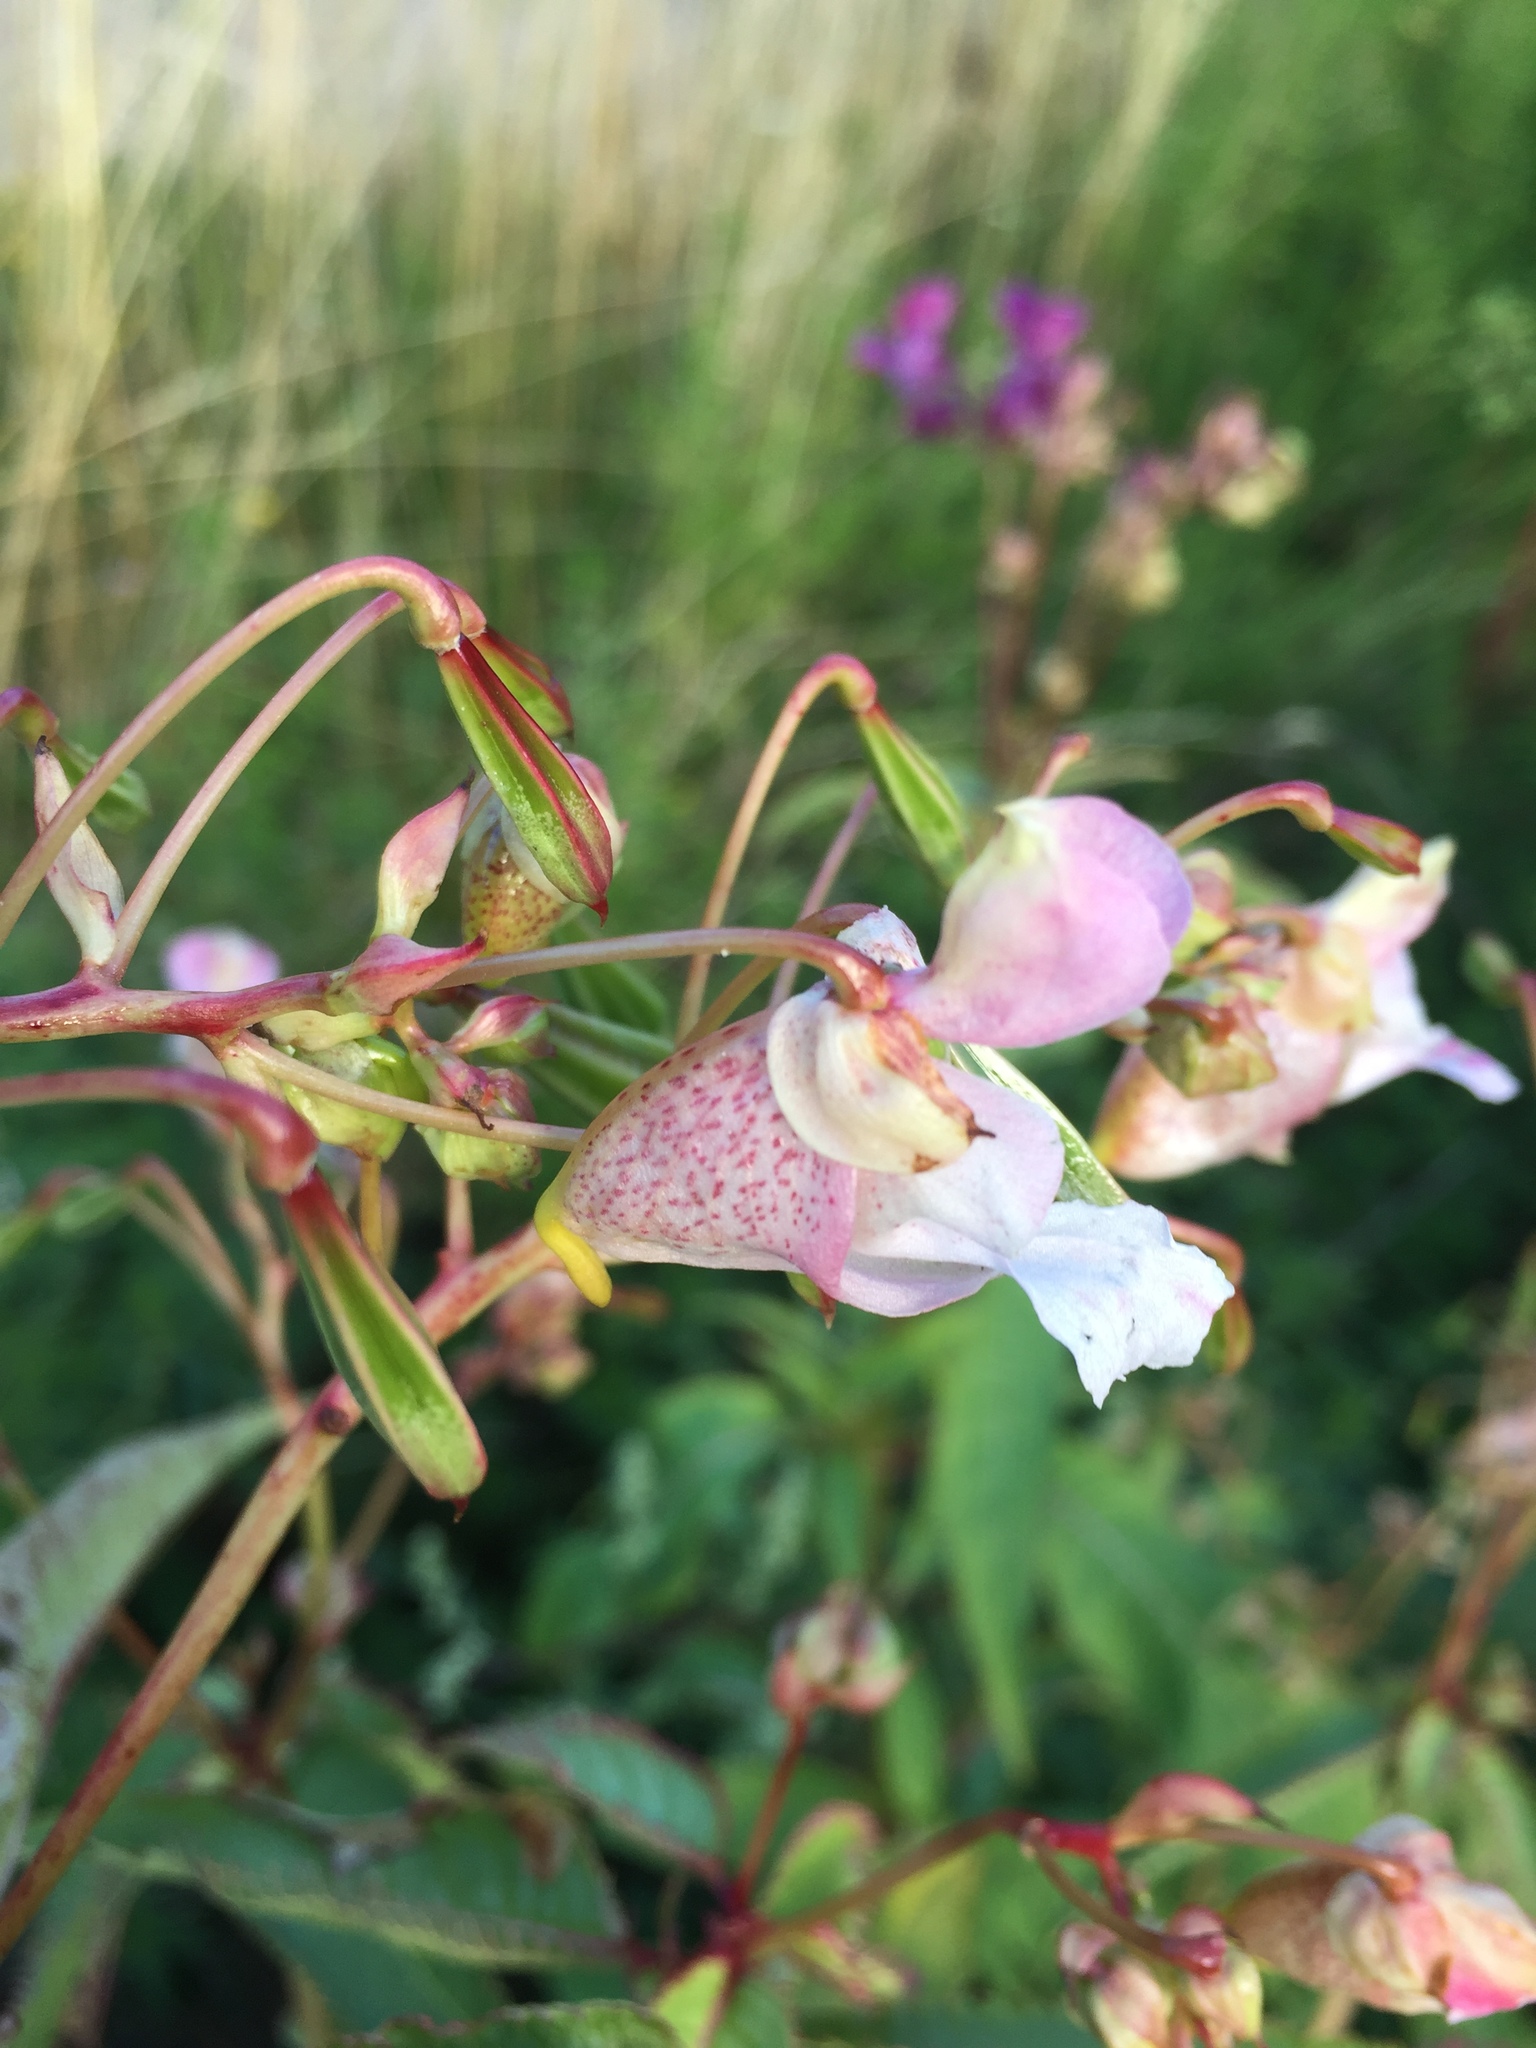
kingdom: Plantae
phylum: Tracheophyta
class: Magnoliopsida
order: Ericales
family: Balsaminaceae
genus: Impatiens
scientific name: Impatiens glandulifera
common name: Himalayan balsam
